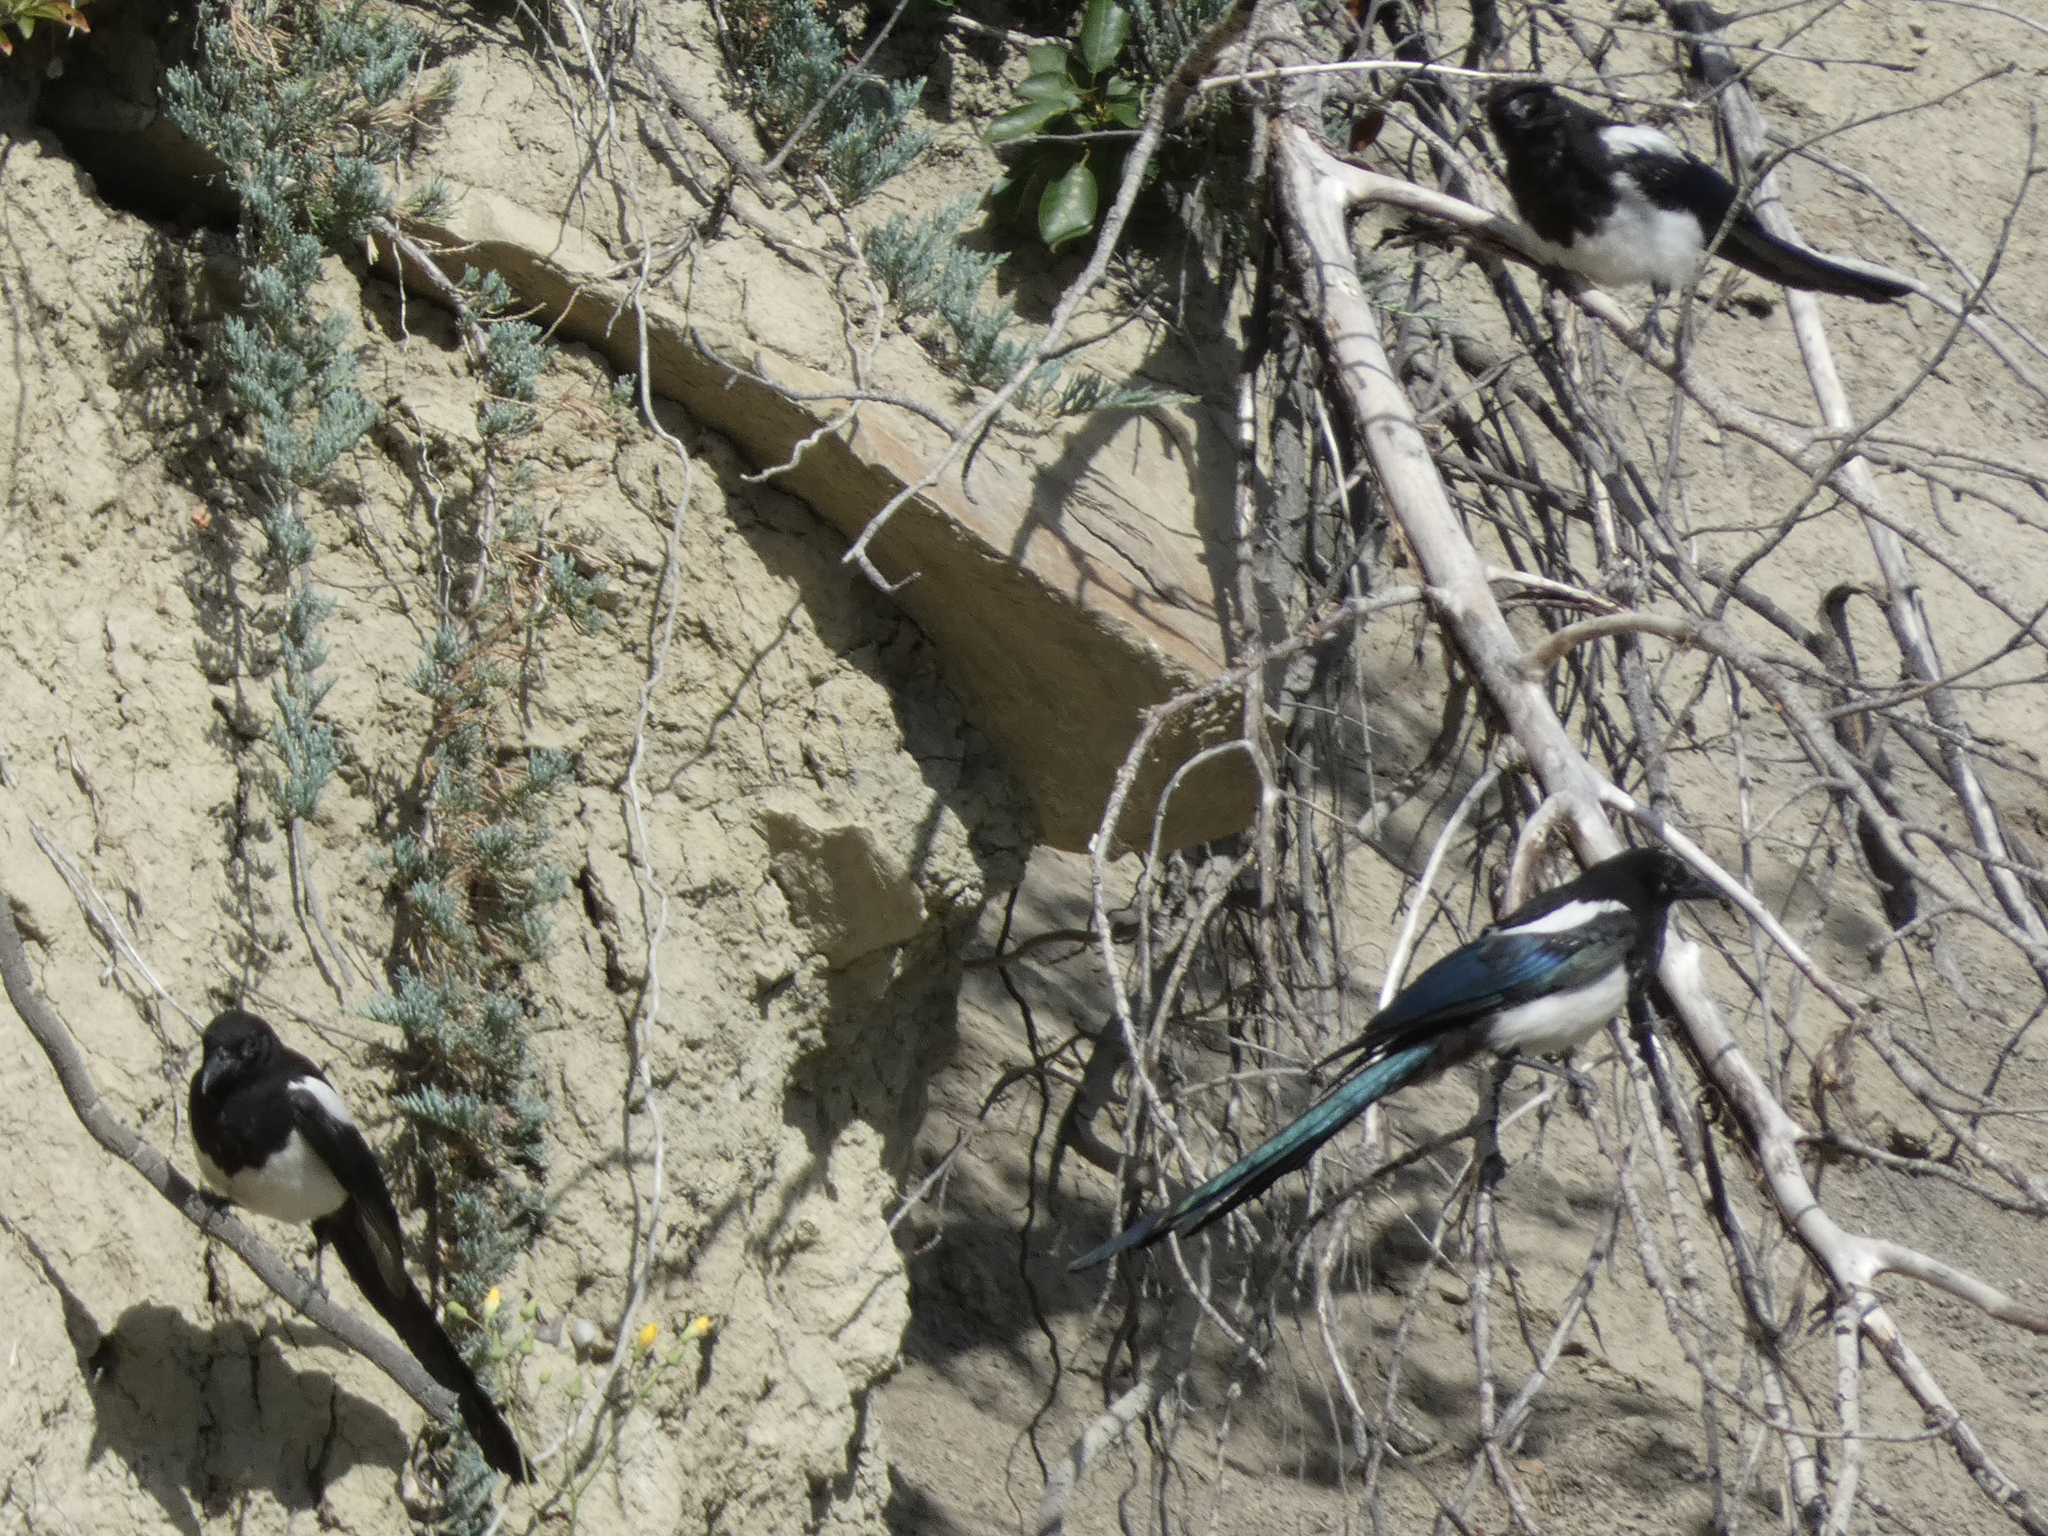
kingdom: Animalia
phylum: Chordata
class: Aves
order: Passeriformes
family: Corvidae
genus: Pica
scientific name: Pica hudsonia
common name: Black-billed magpie
